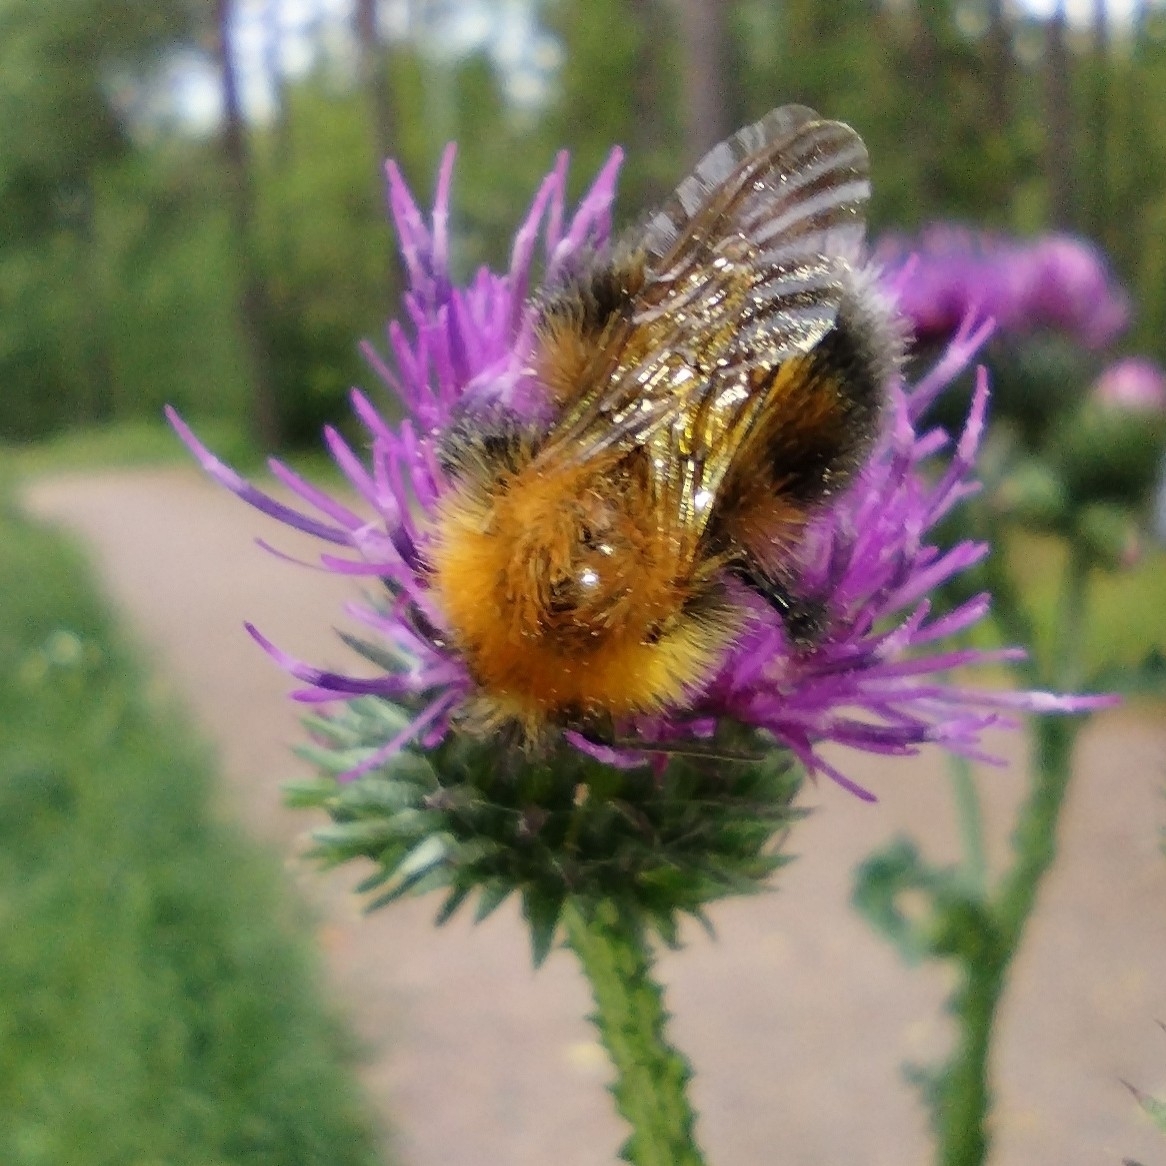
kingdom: Animalia
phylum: Arthropoda
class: Insecta
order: Hymenoptera
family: Apidae
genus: Bombus
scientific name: Bombus hypnorum
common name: New garden bumblebee
